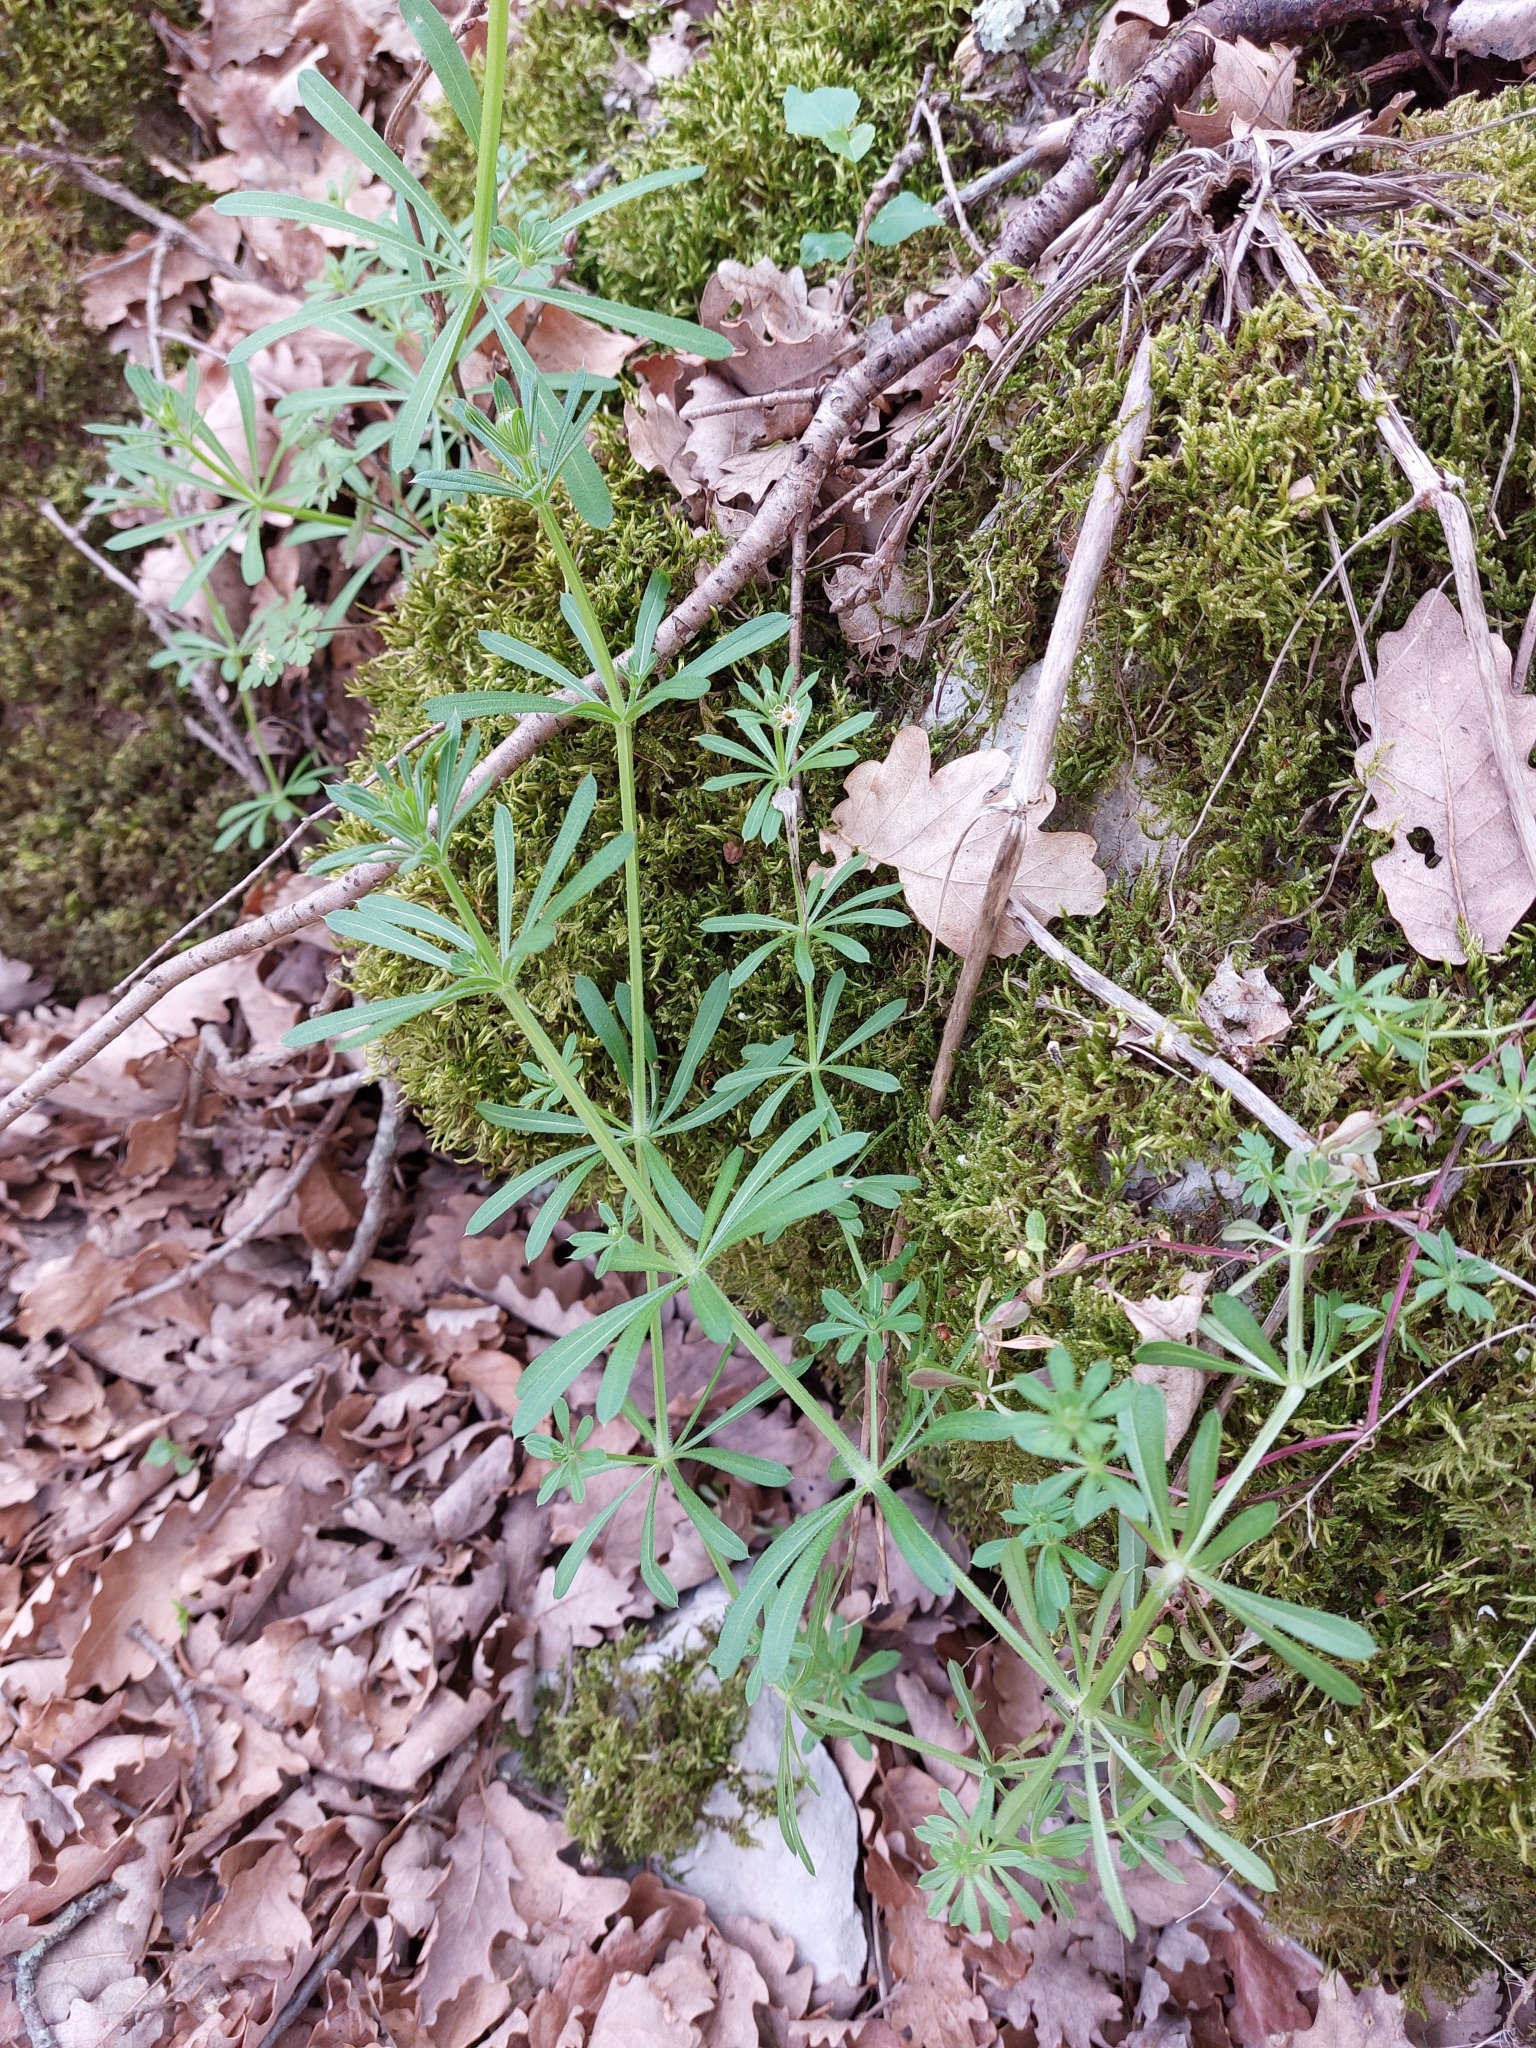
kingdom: Plantae
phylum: Tracheophyta
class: Magnoliopsida
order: Gentianales
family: Rubiaceae
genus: Galium
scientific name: Galium aparine
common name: Cleavers
